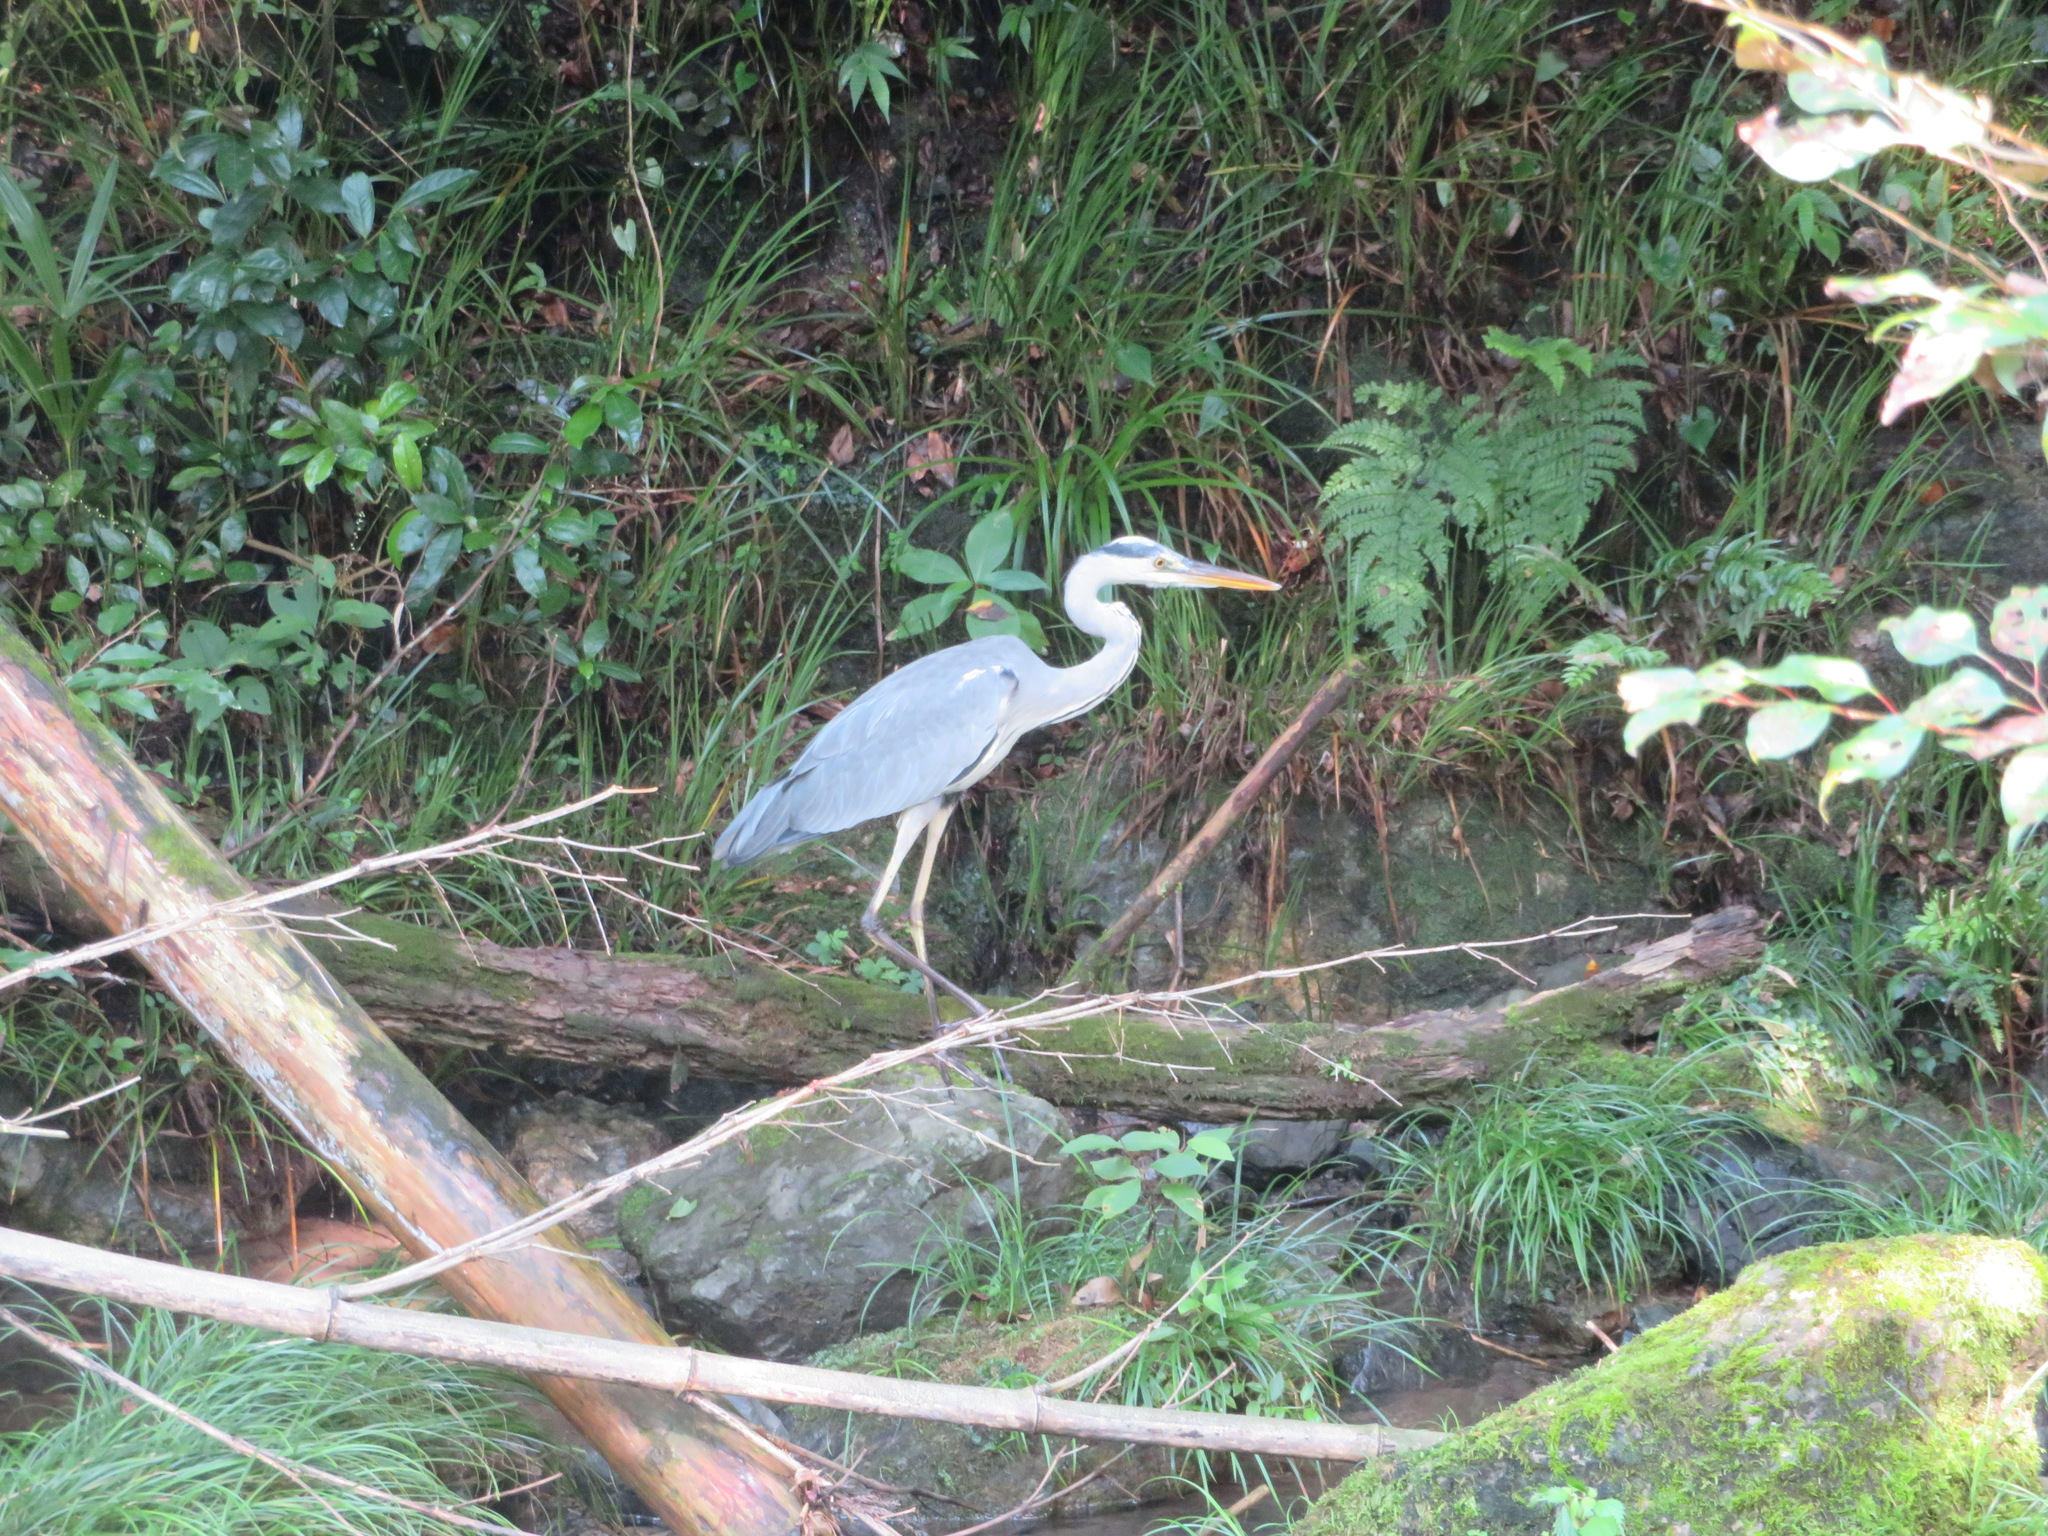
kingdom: Animalia
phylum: Chordata
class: Aves
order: Pelecaniformes
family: Ardeidae
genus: Ardea
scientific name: Ardea cinerea
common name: Grey heron
